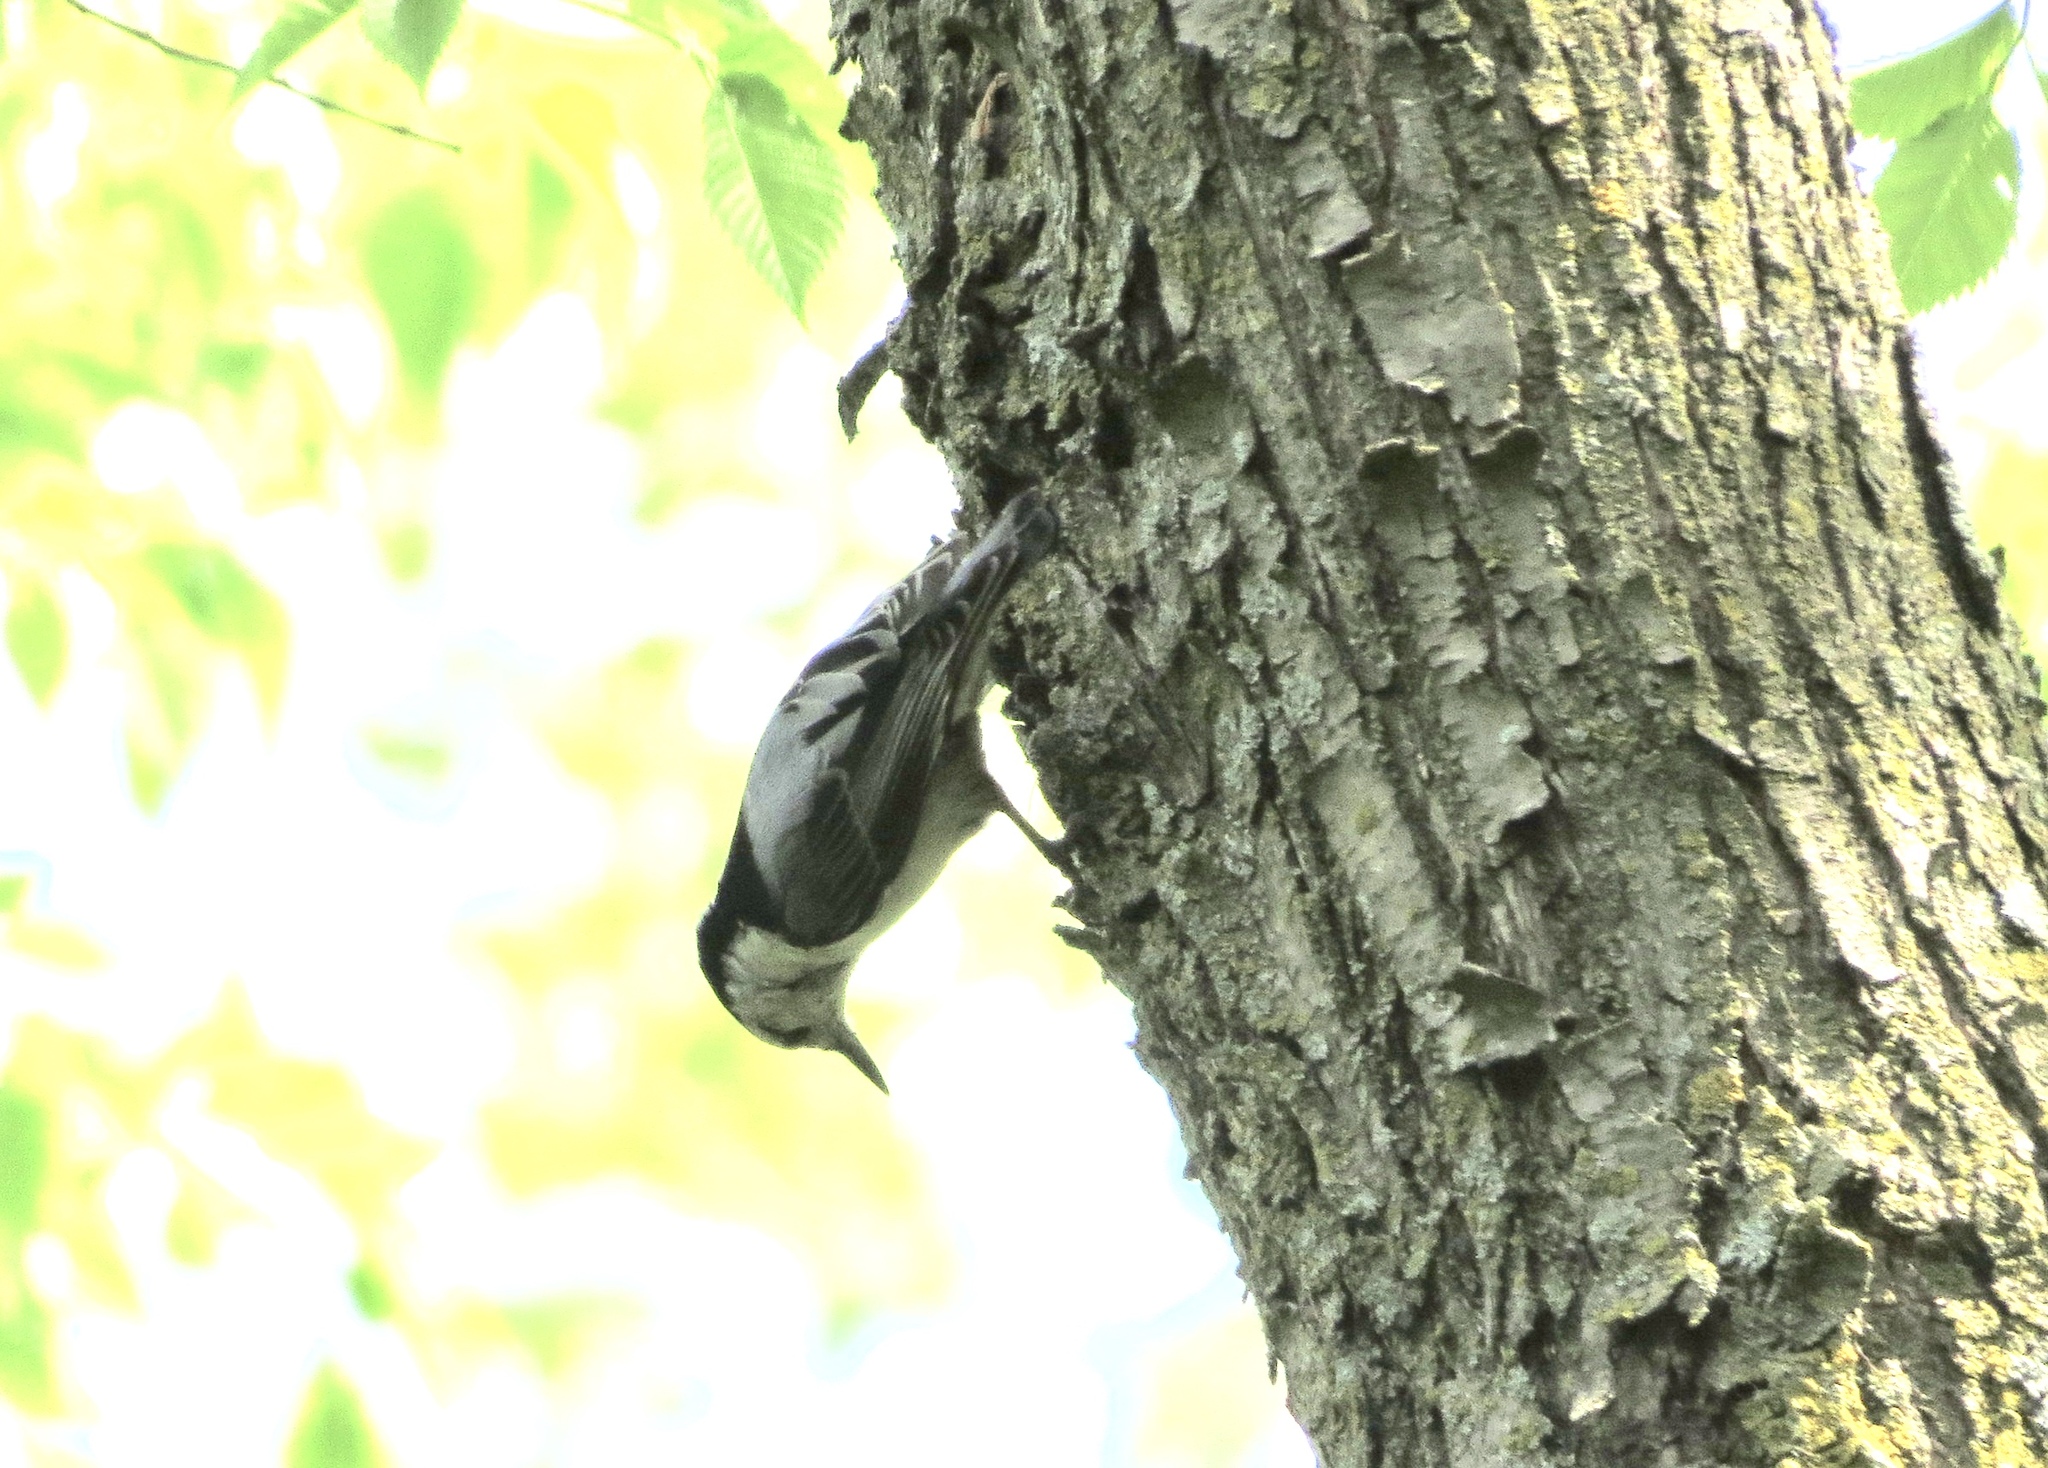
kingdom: Animalia
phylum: Chordata
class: Aves
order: Passeriformes
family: Sittidae
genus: Sitta
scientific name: Sitta carolinensis
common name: White-breasted nuthatch
